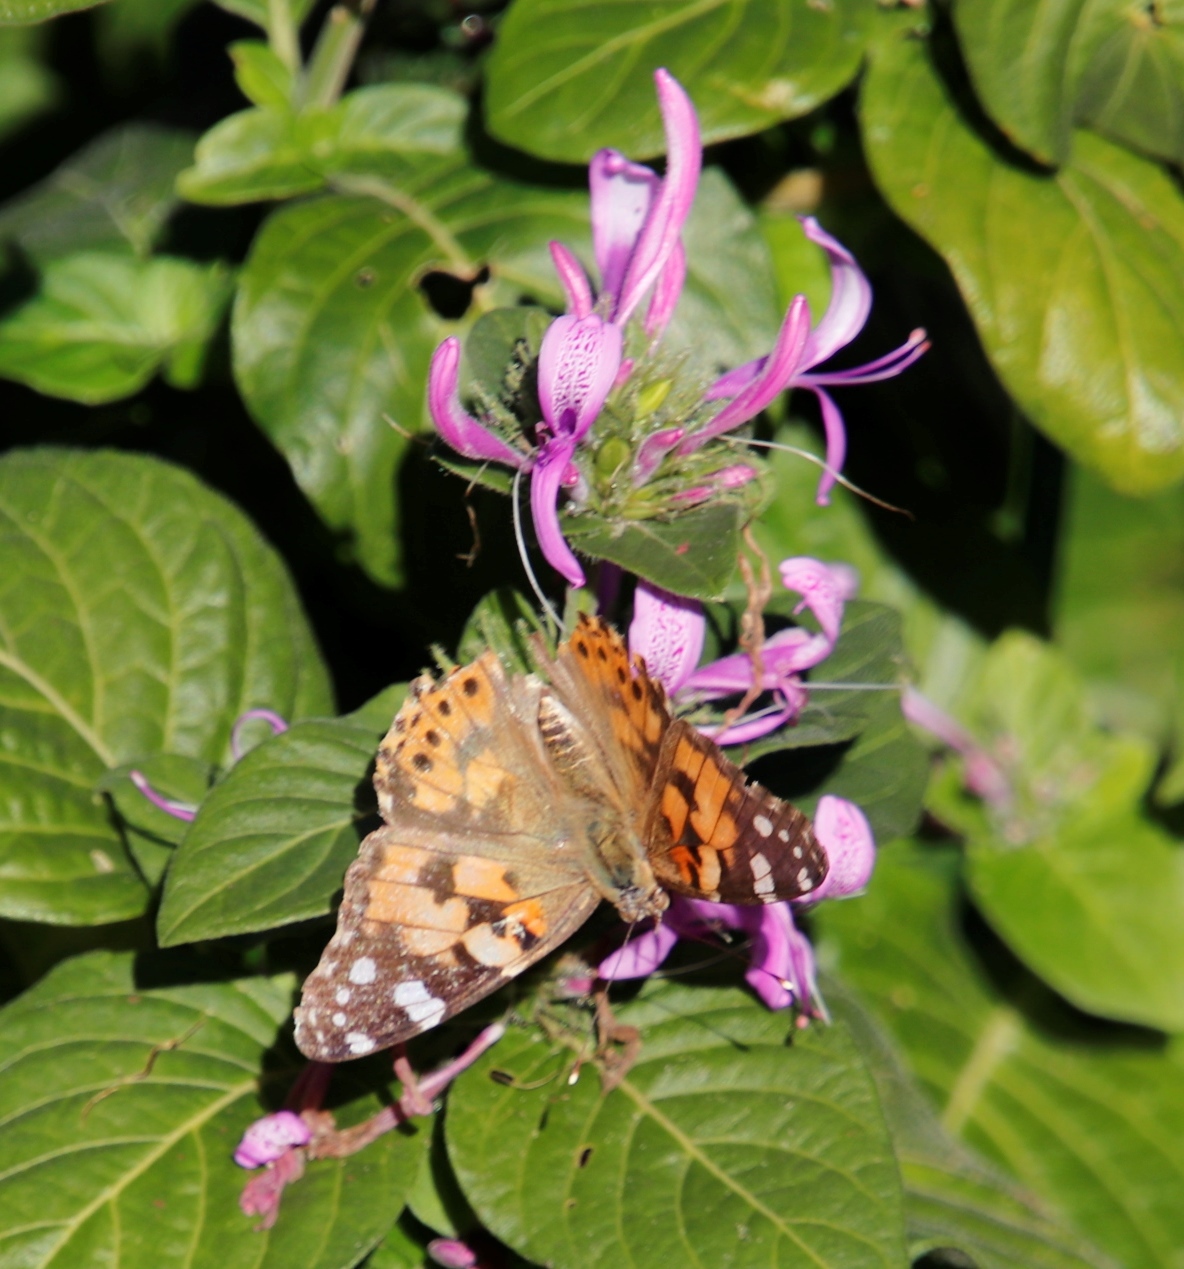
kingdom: Animalia
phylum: Arthropoda
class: Insecta
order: Lepidoptera
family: Nymphalidae
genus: Vanessa
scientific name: Vanessa cardui
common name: Painted lady
